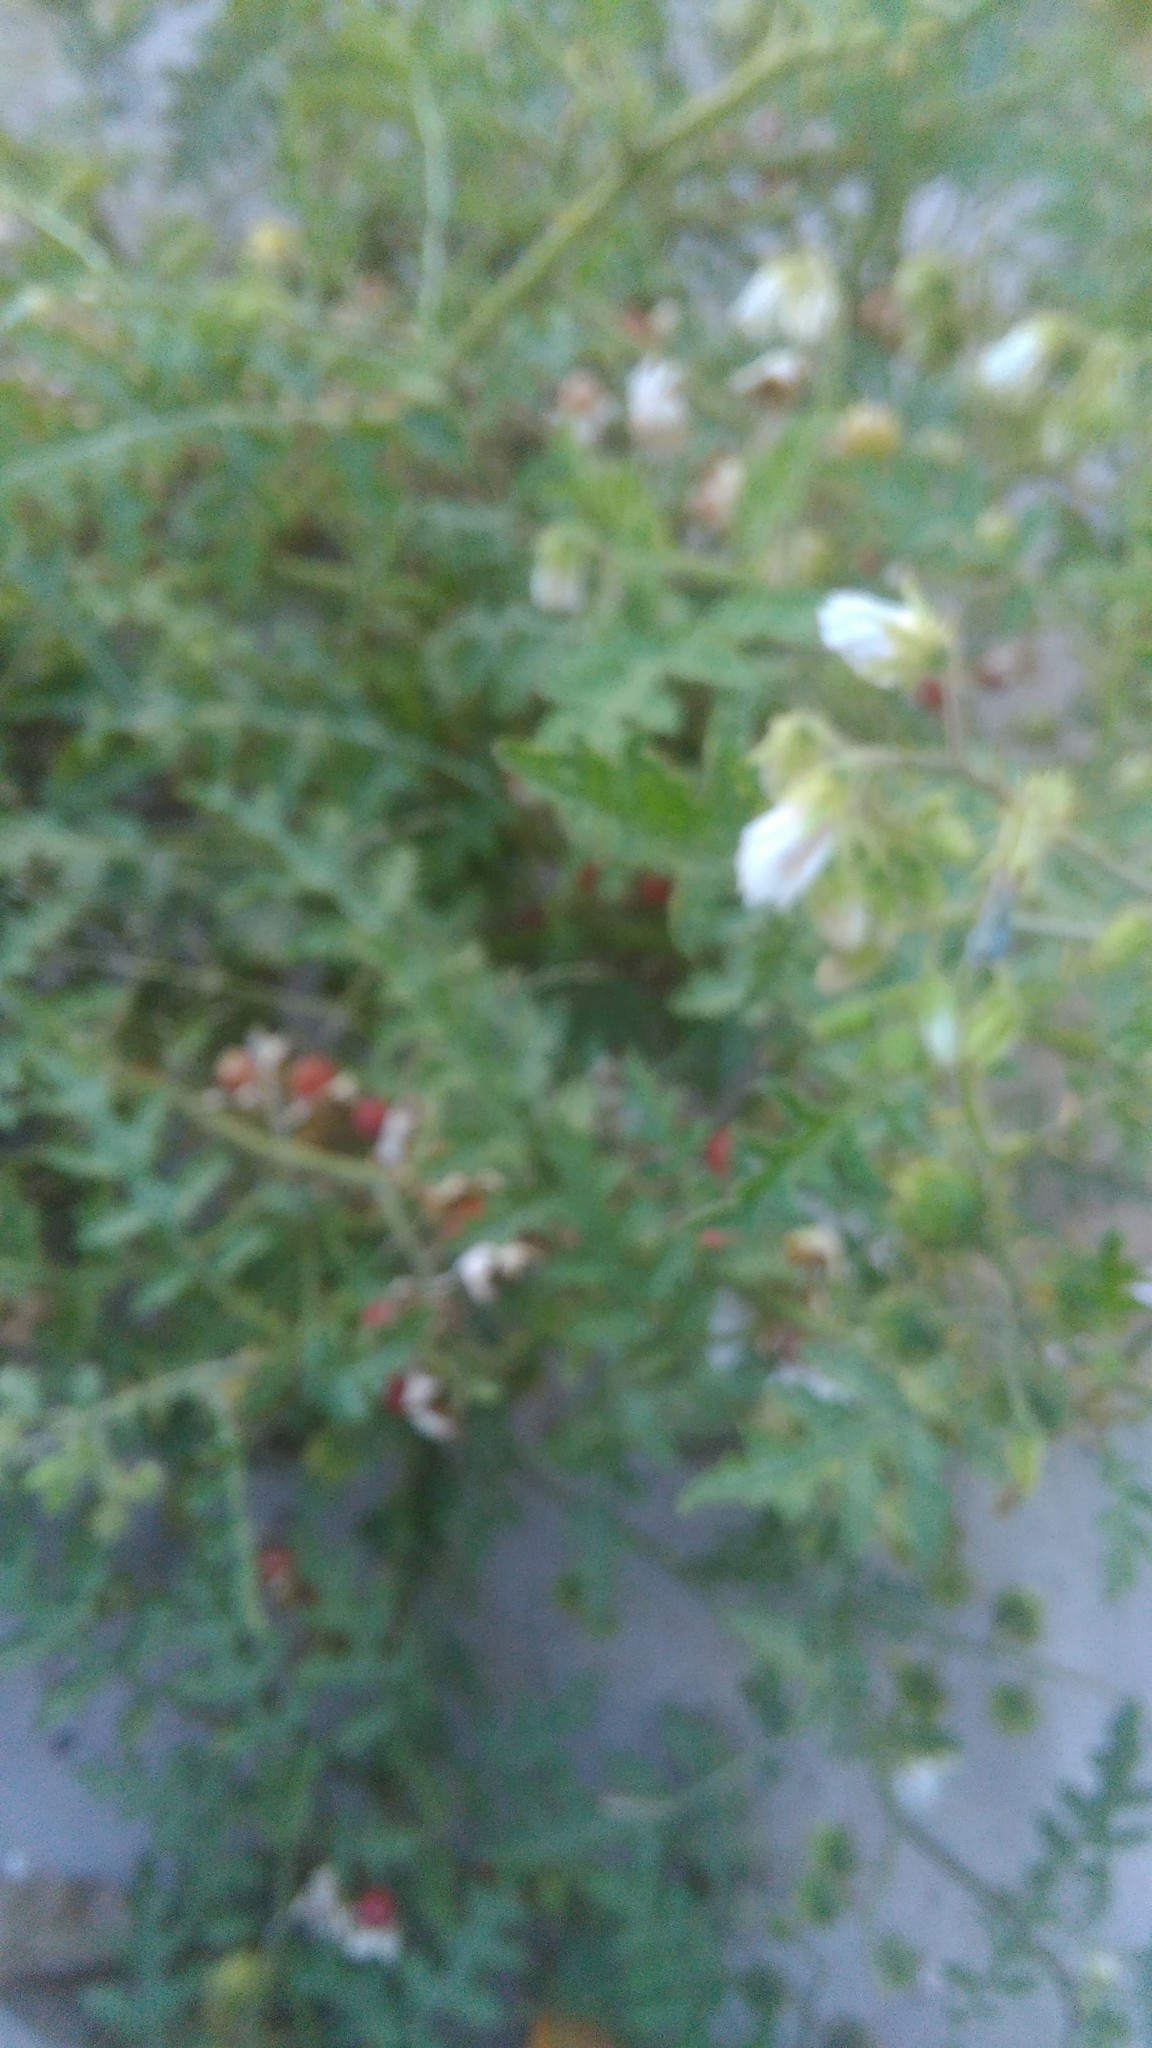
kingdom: Plantae
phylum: Tracheophyta
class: Magnoliopsida
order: Solanales
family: Solanaceae
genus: Solanum
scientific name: Solanum sisymbriifolium
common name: Red buffalo-bur
